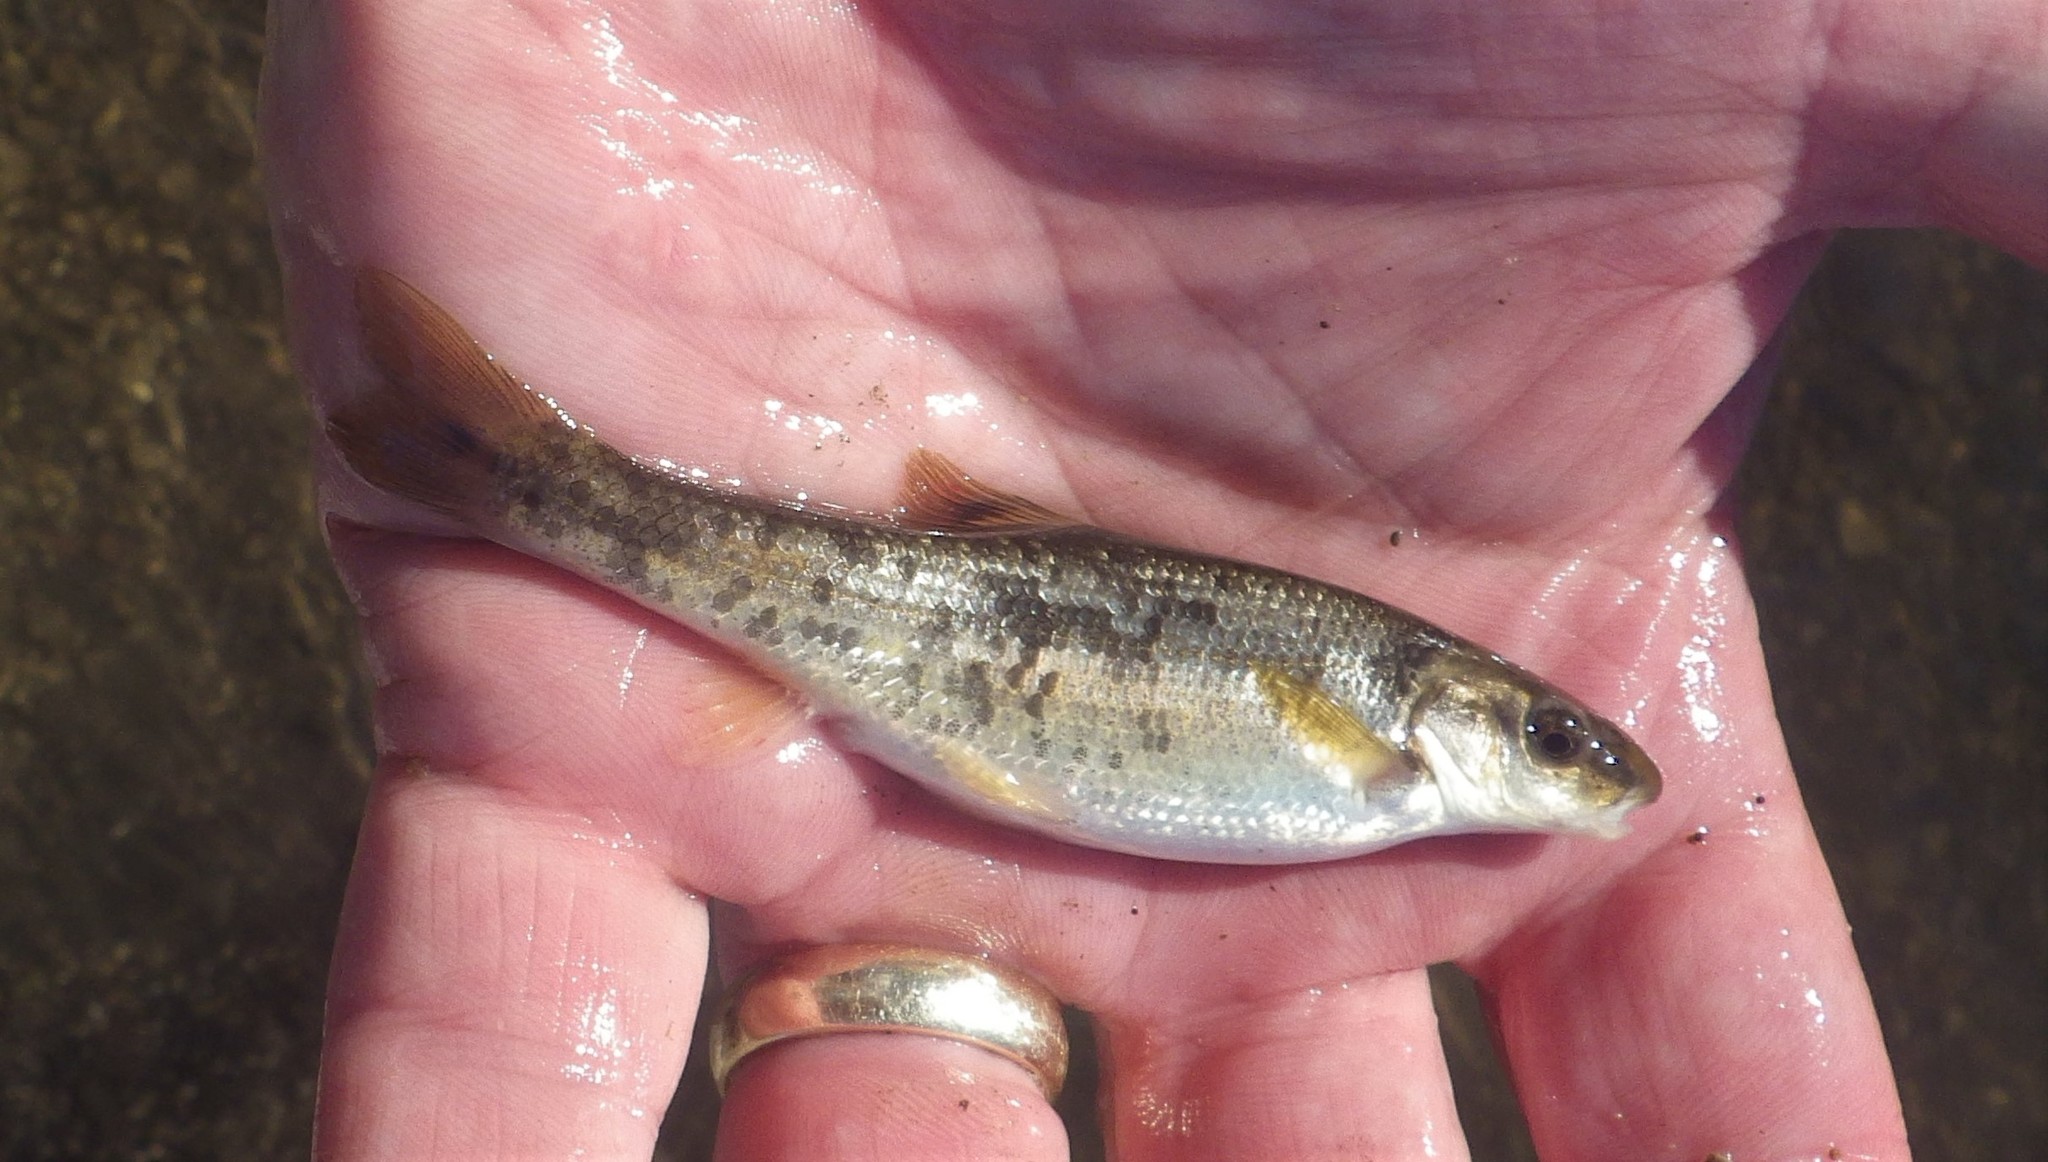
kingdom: Animalia
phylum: Chordata
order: Cypriniformes
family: Cyprinidae
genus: Campostoma
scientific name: Campostoma anomalum
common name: Central stoneroller
